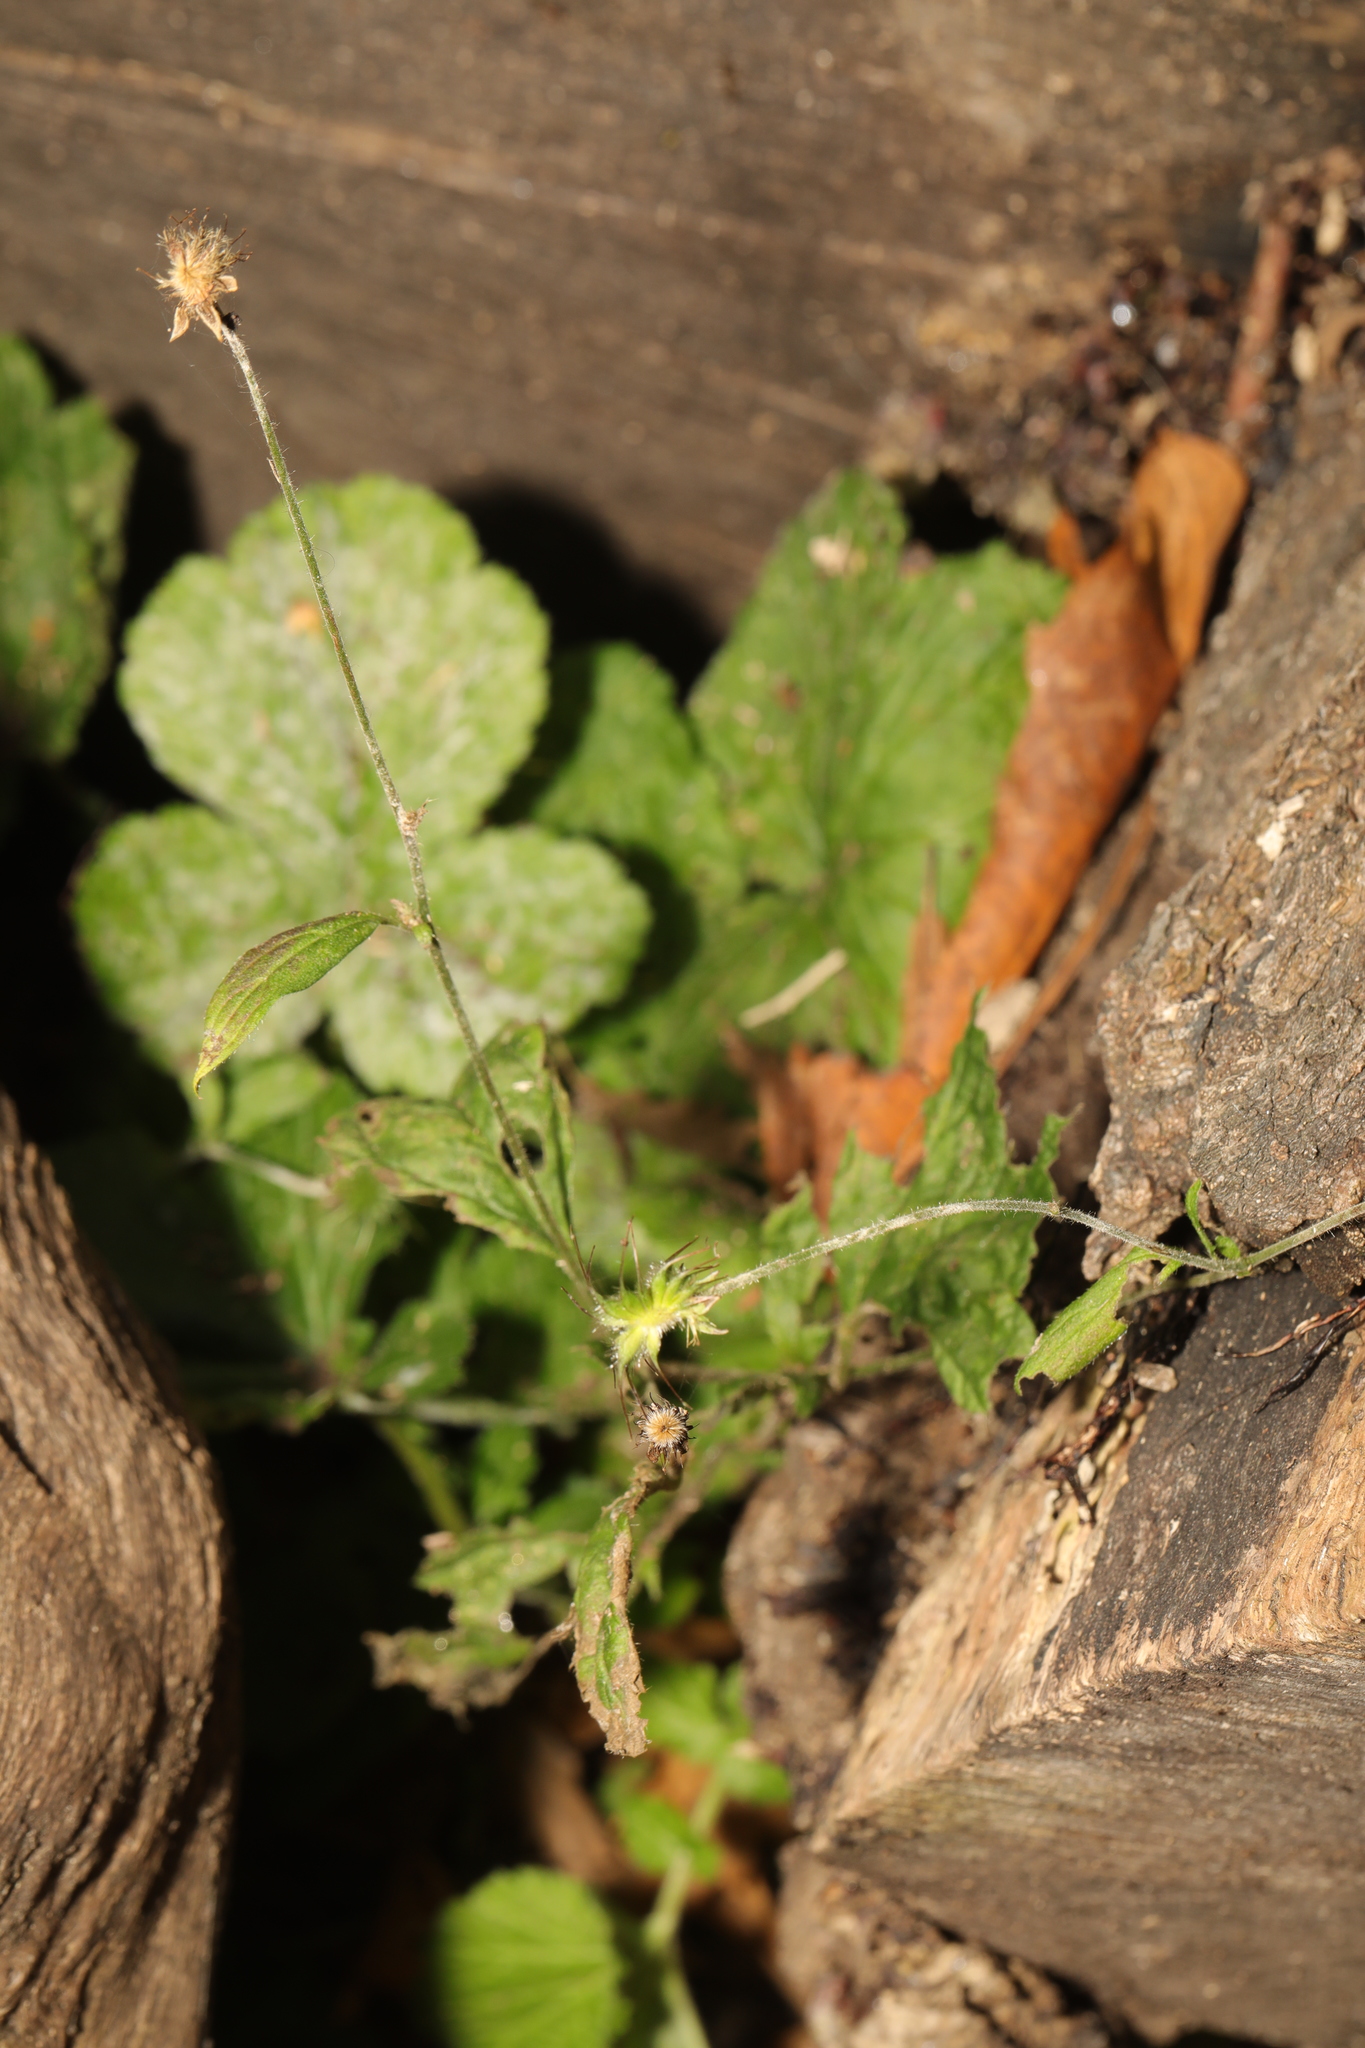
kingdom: Plantae
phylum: Tracheophyta
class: Magnoliopsida
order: Rosales
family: Rosaceae
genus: Geum
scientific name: Geum urbanum
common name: Wood avens
